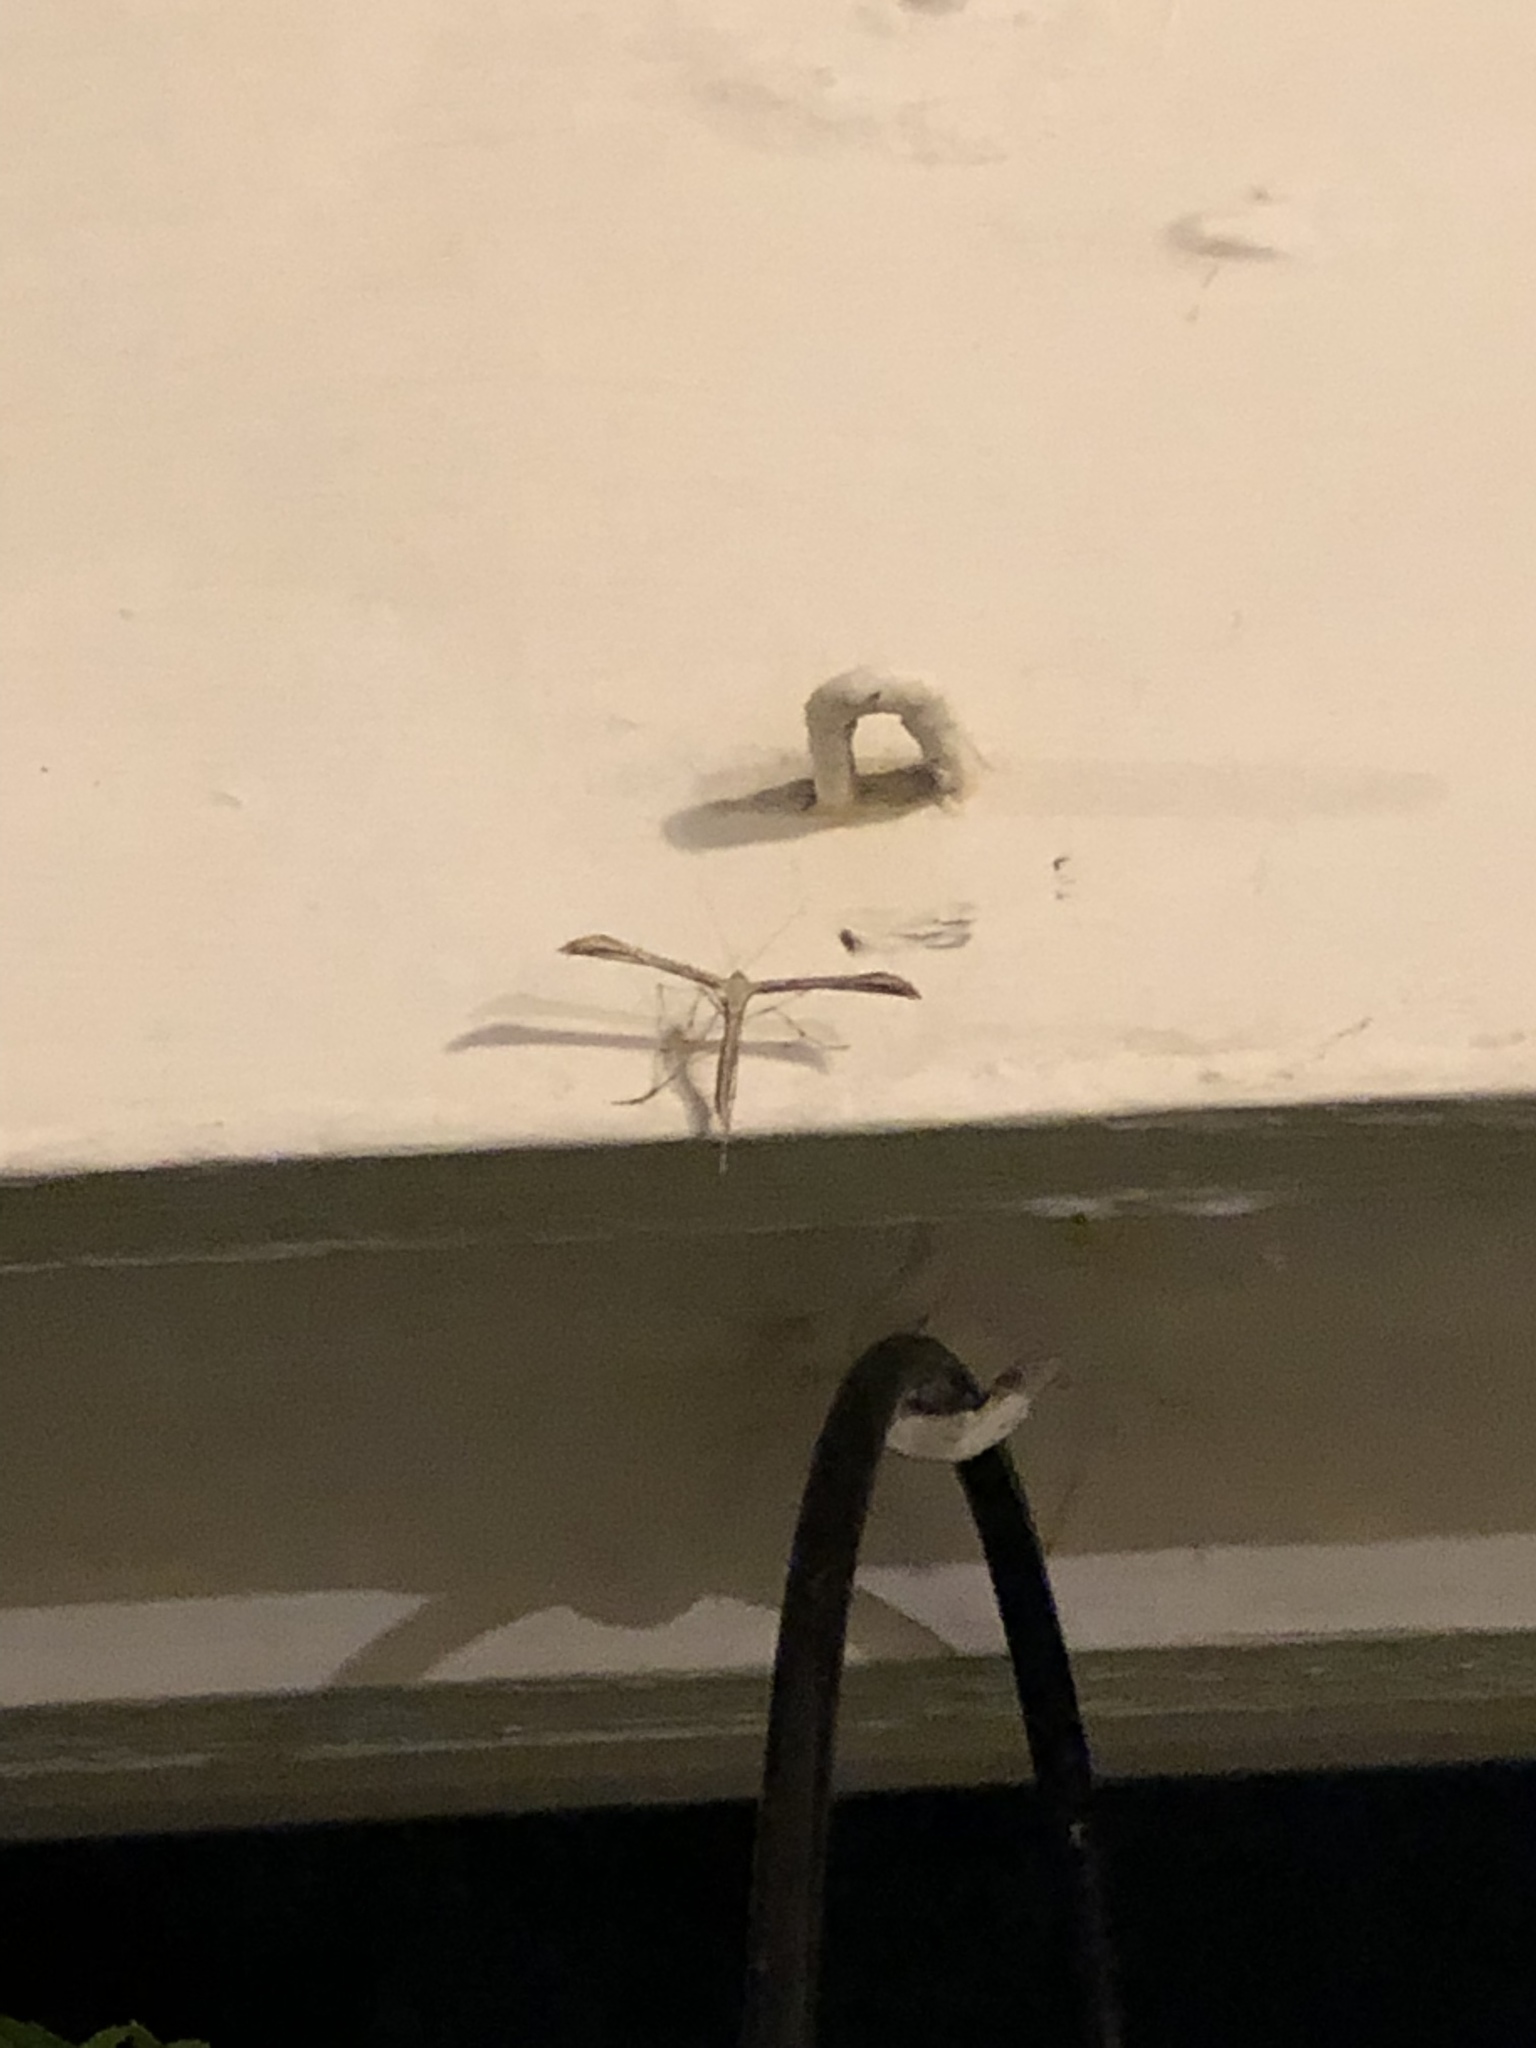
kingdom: Animalia
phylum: Arthropoda
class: Insecta
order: Lepidoptera
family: Pterophoridae
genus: Emmelina
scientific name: Emmelina monodactyla
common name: Common plume
